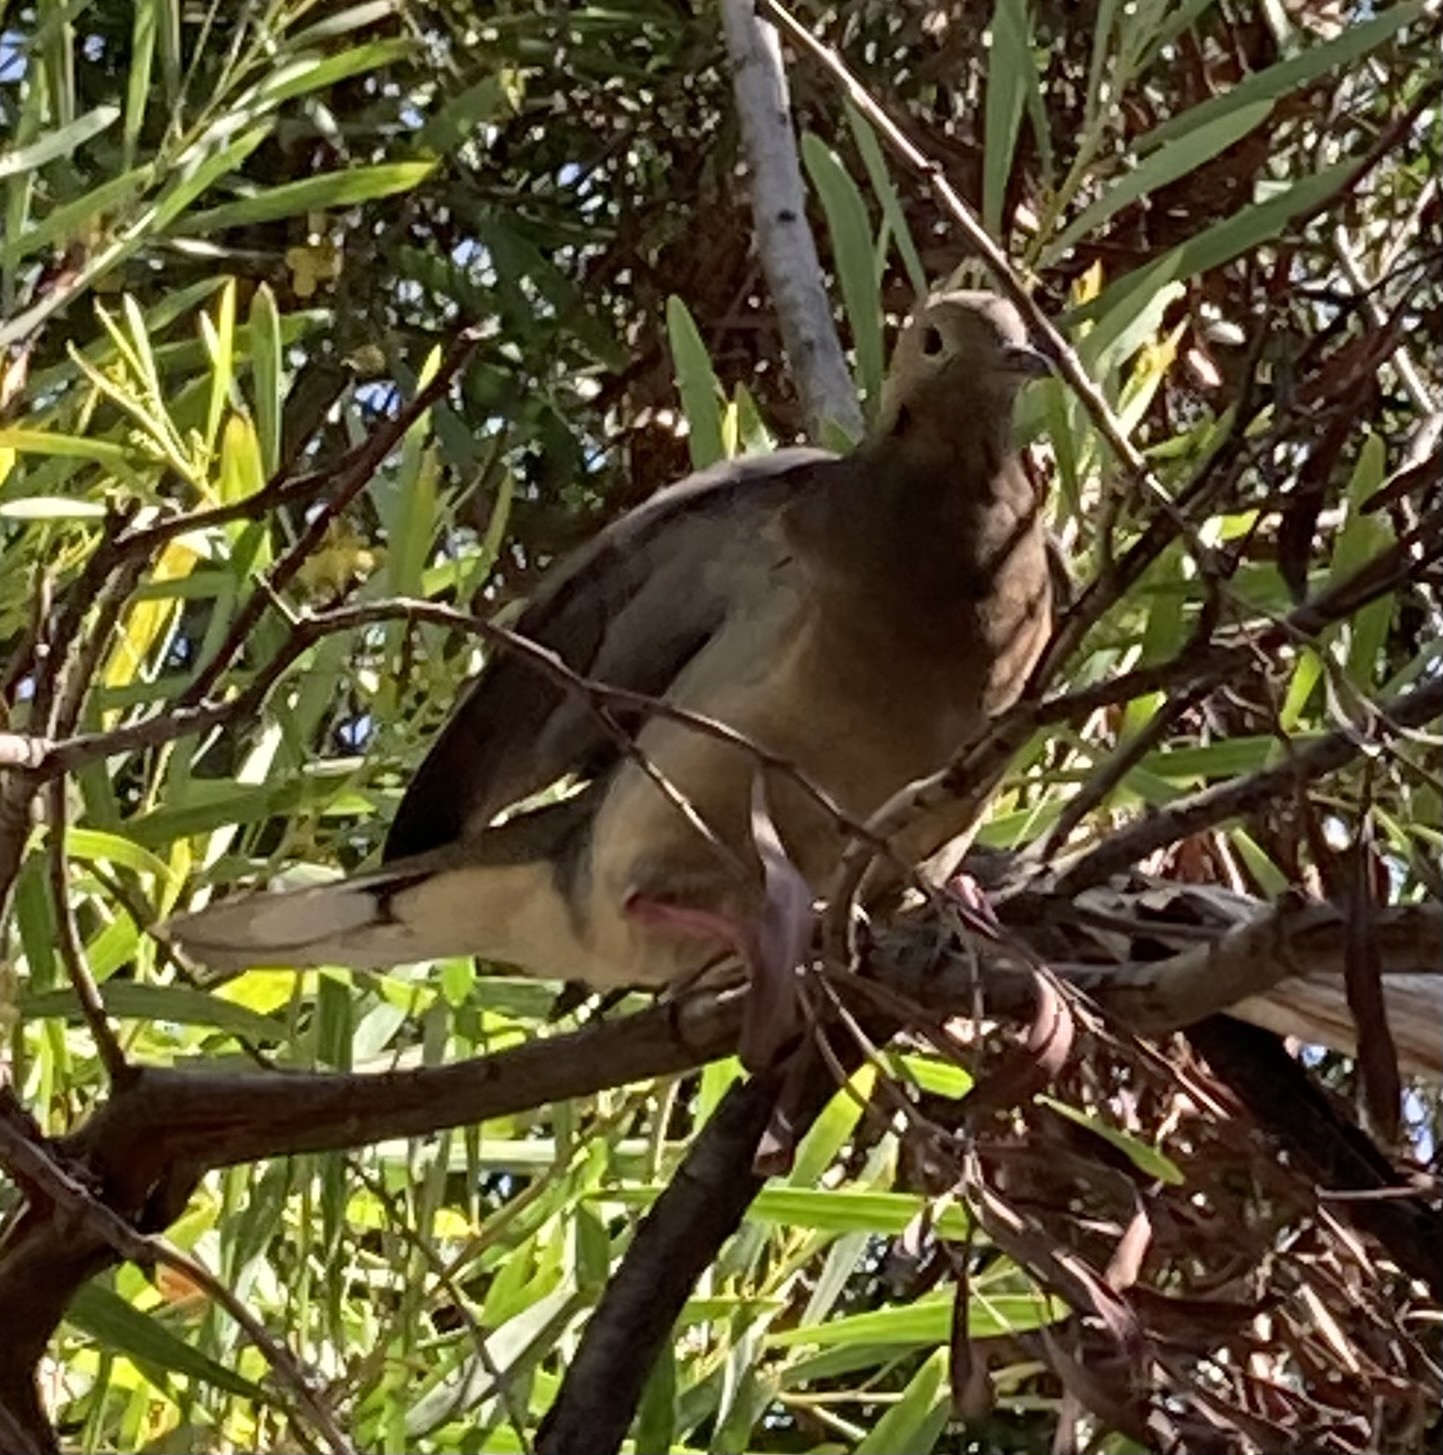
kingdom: Animalia
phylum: Chordata
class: Aves
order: Columbiformes
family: Columbidae
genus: Zenaida
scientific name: Zenaida auriculata
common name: Eared dove
